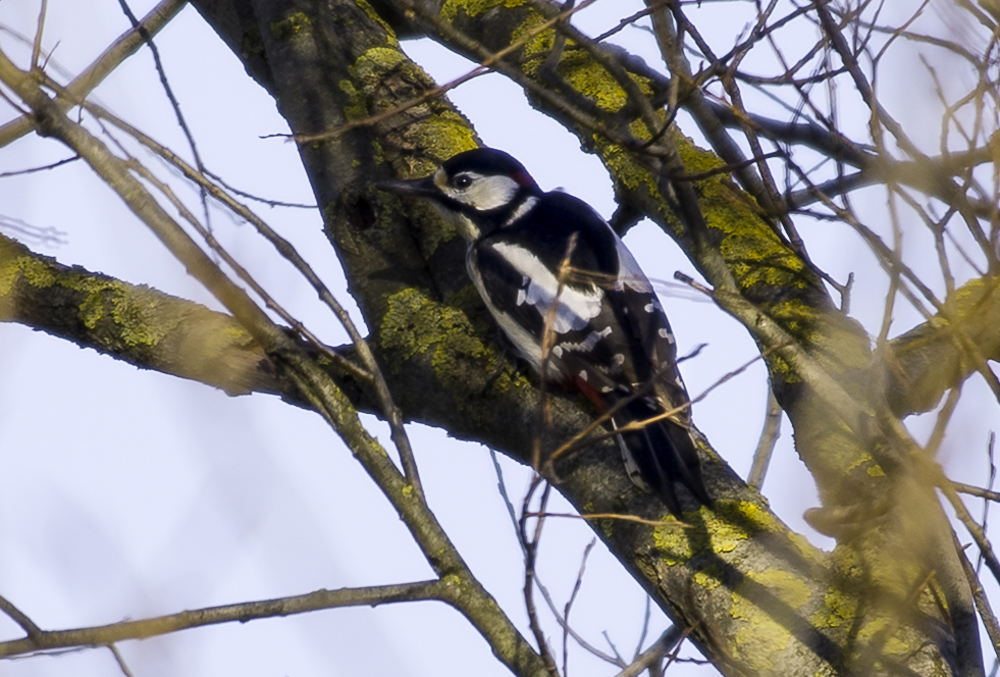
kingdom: Animalia
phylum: Chordata
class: Aves
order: Piciformes
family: Picidae
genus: Dendrocopos
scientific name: Dendrocopos major
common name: Great spotted woodpecker
